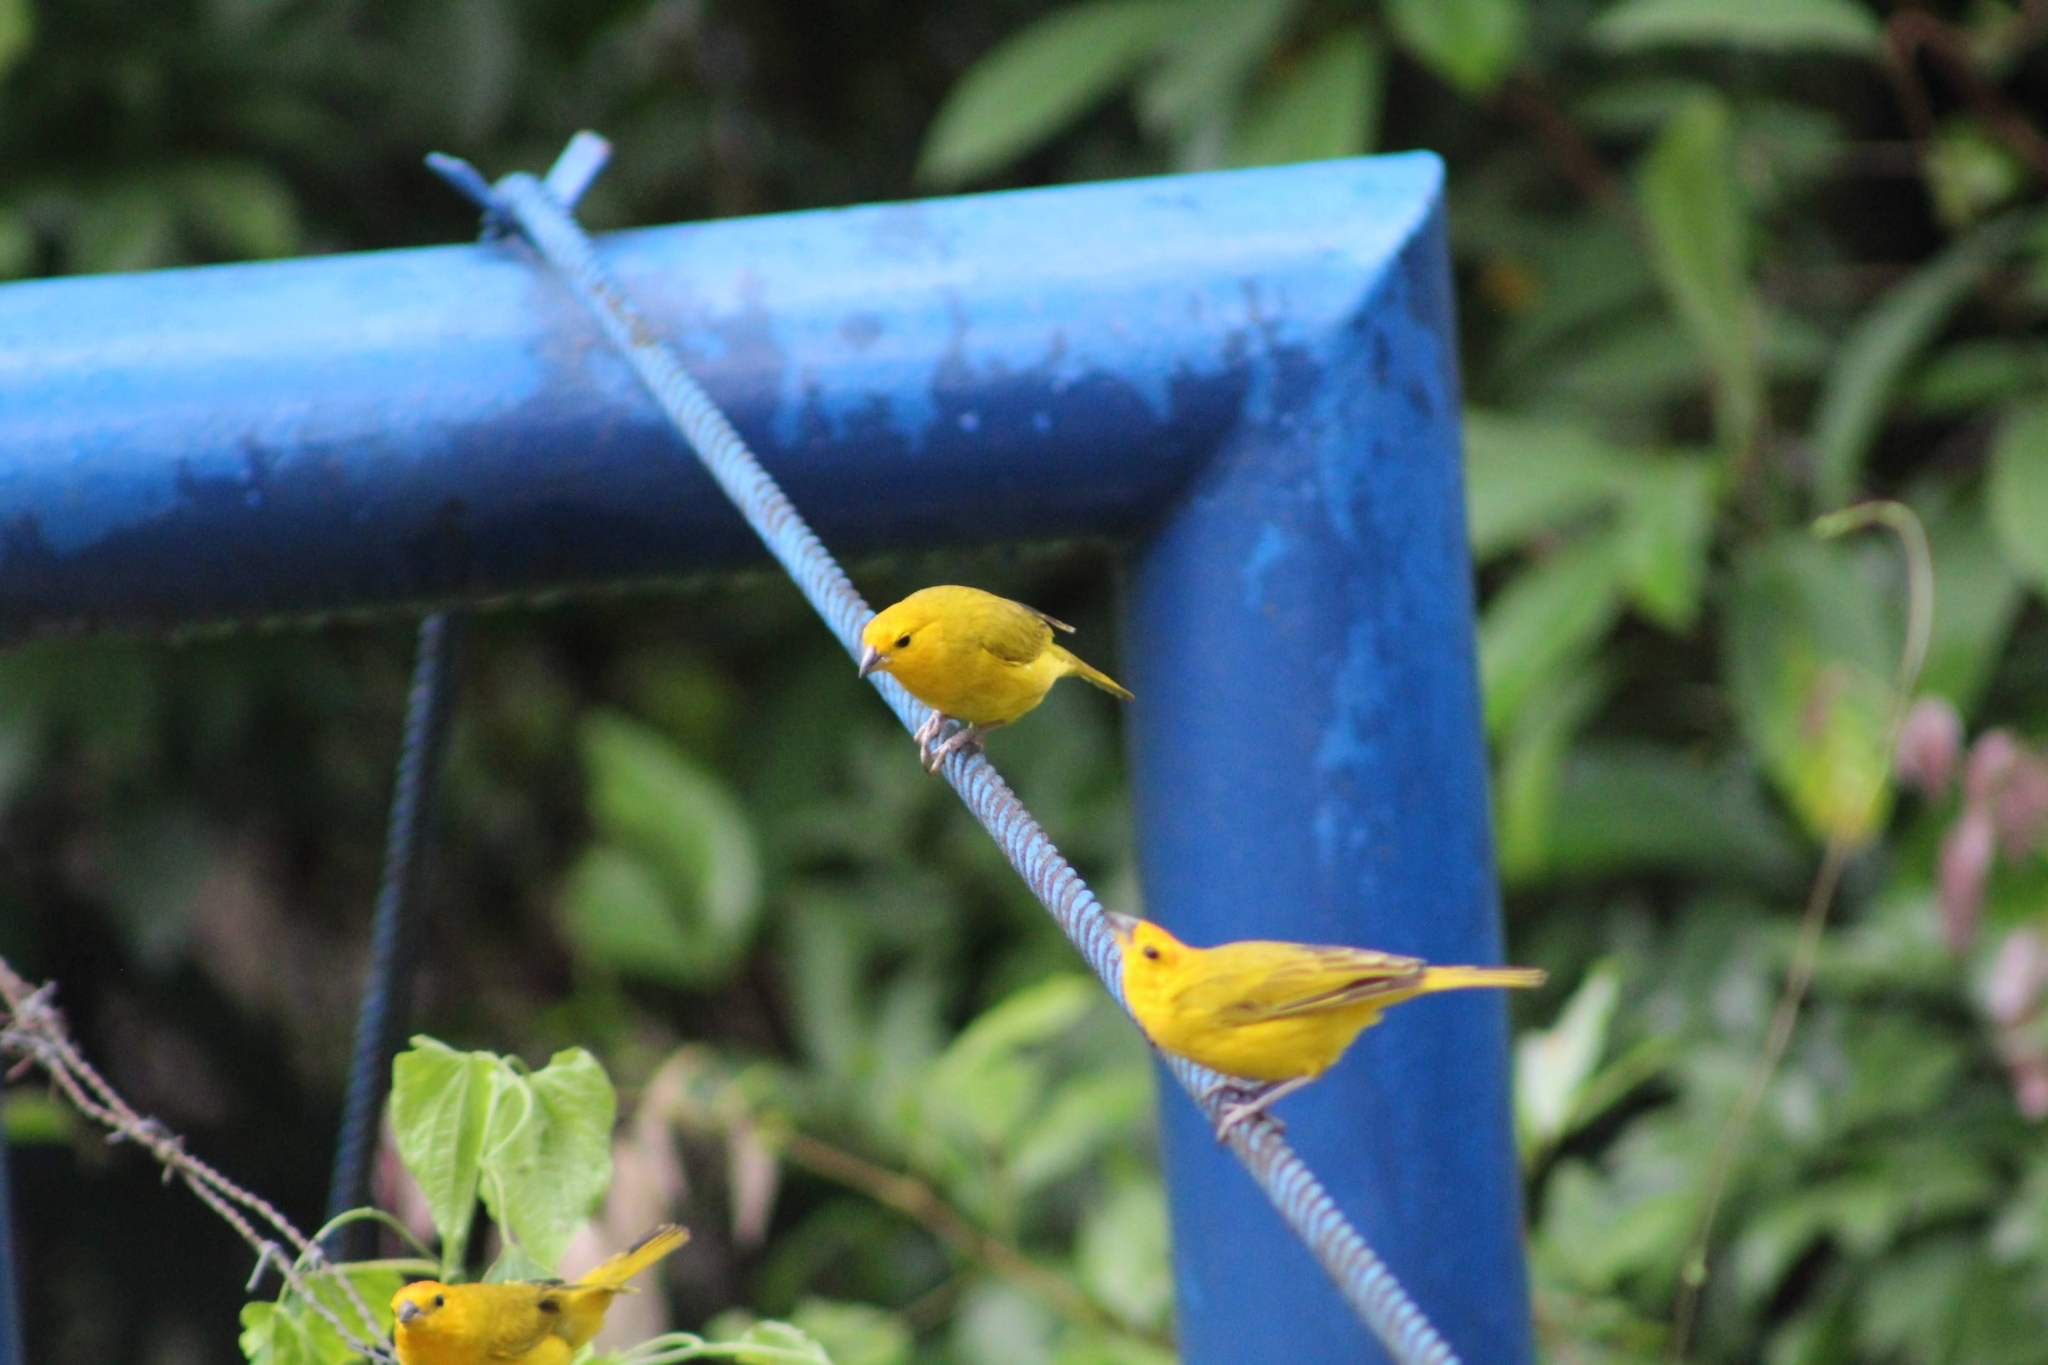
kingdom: Animalia
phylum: Chordata
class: Aves
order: Passeriformes
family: Thraupidae
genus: Sicalis
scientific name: Sicalis flaveola
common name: Saffron finch
